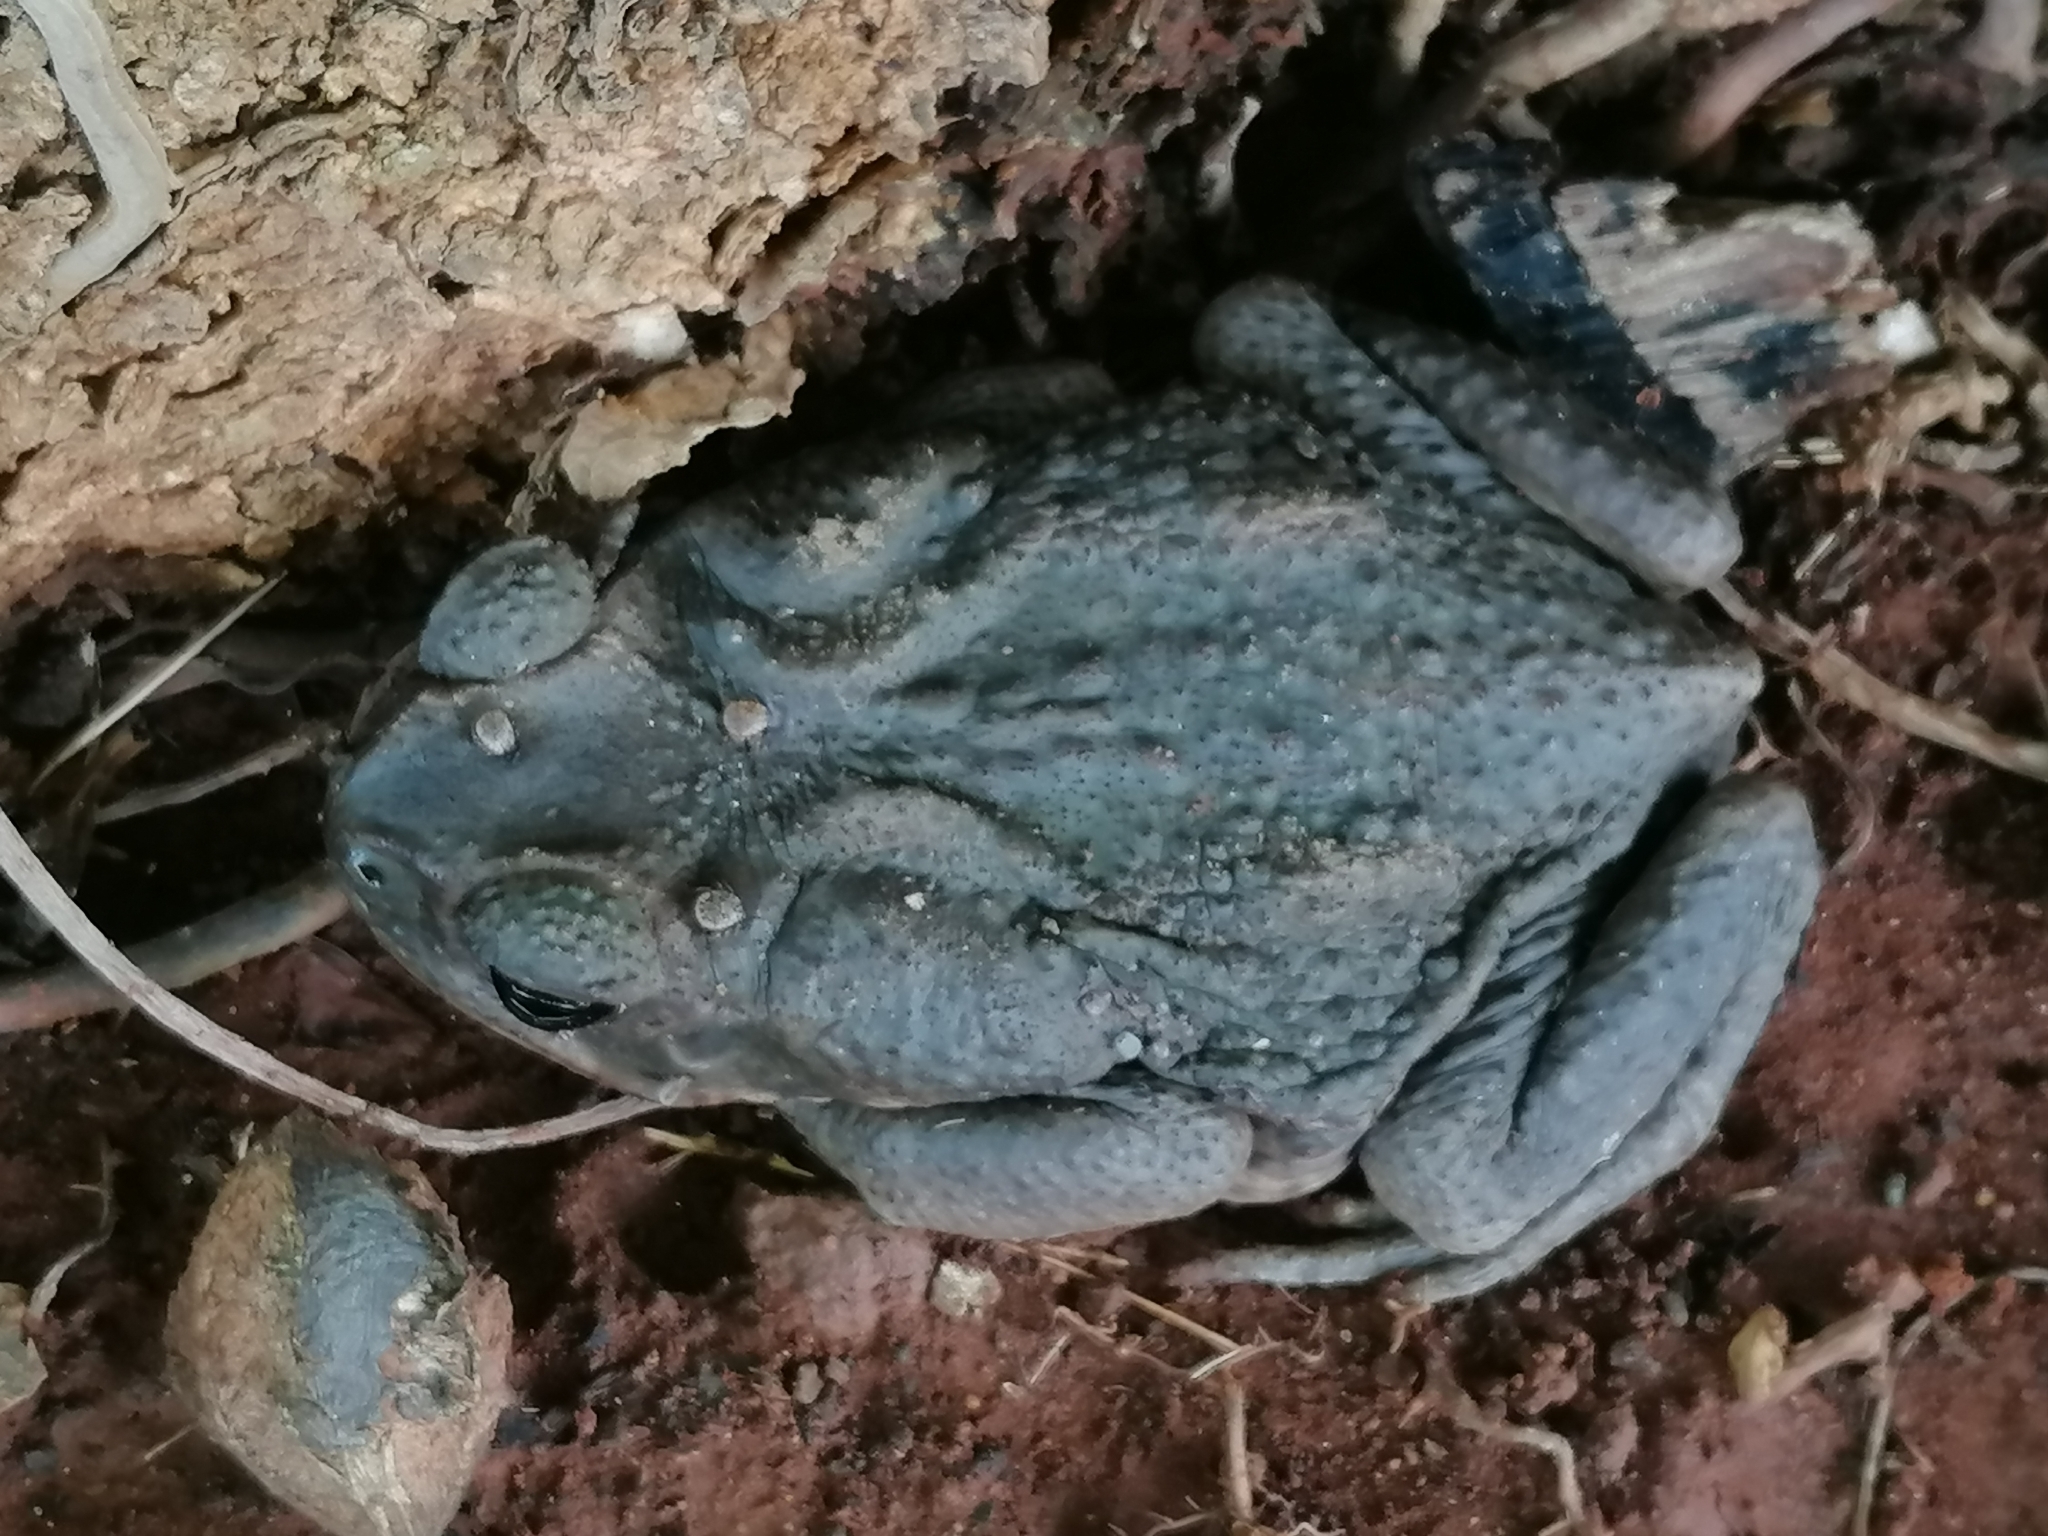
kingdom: Animalia
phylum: Chordata
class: Amphibia
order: Anura
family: Bufonidae
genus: Rhinella
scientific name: Rhinella horribilis
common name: Mesoamerican cane toad
